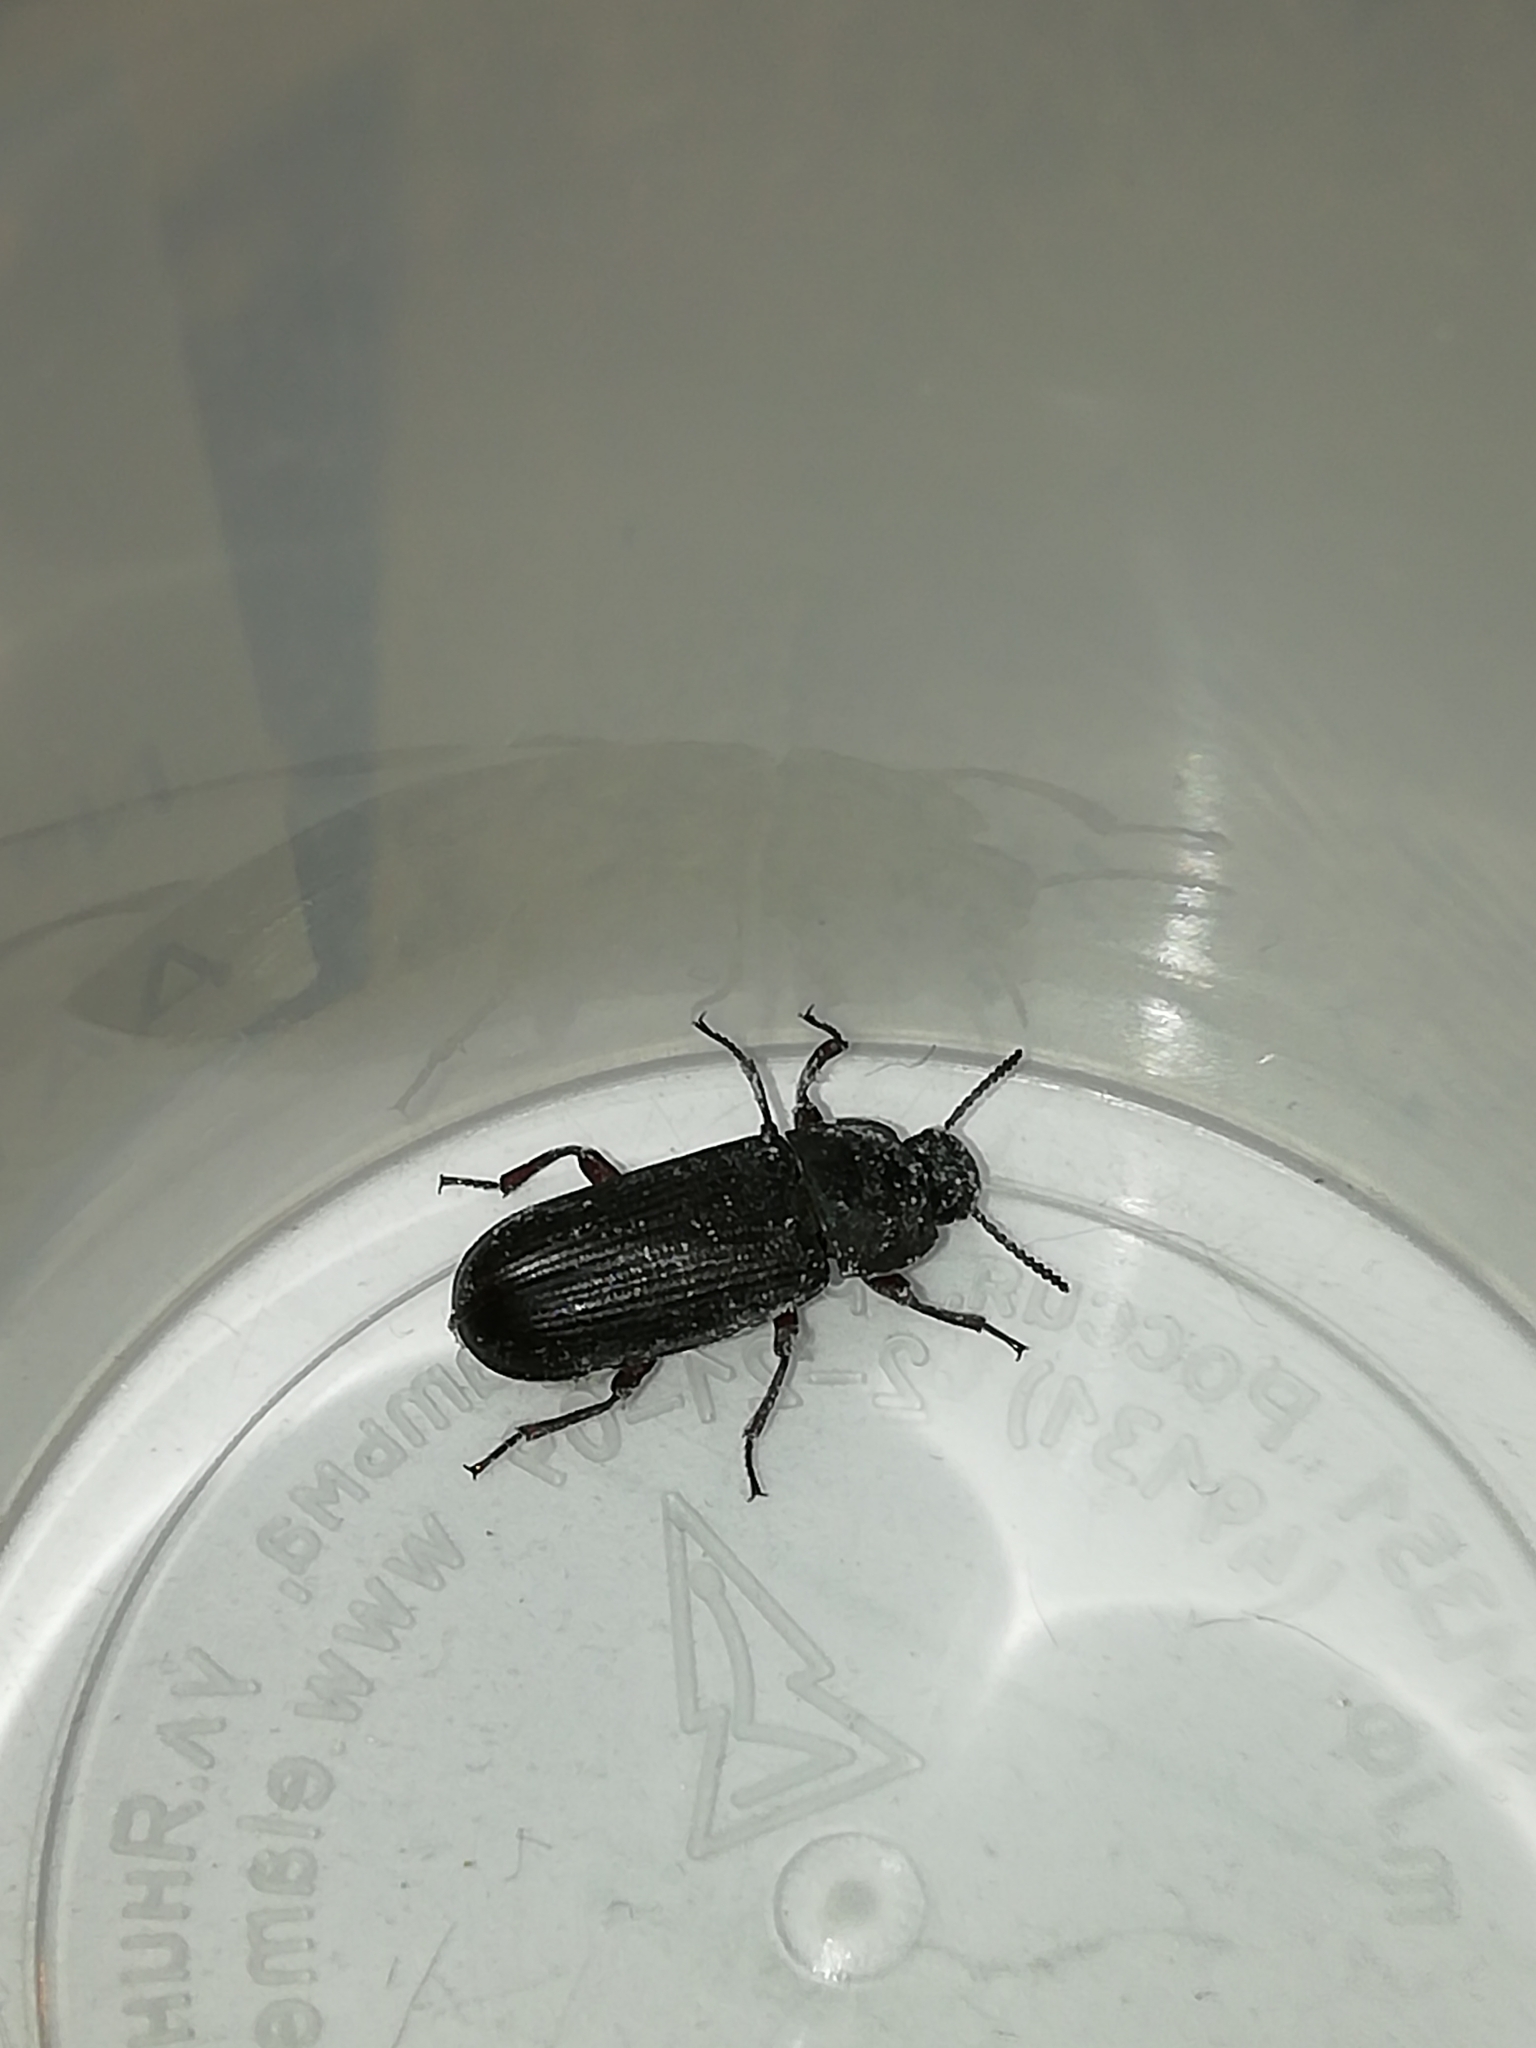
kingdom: Animalia
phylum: Arthropoda
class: Insecta
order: Coleoptera
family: Tenebrionidae
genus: Tenebrio
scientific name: Tenebrio molitor
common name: Hardback beetle
